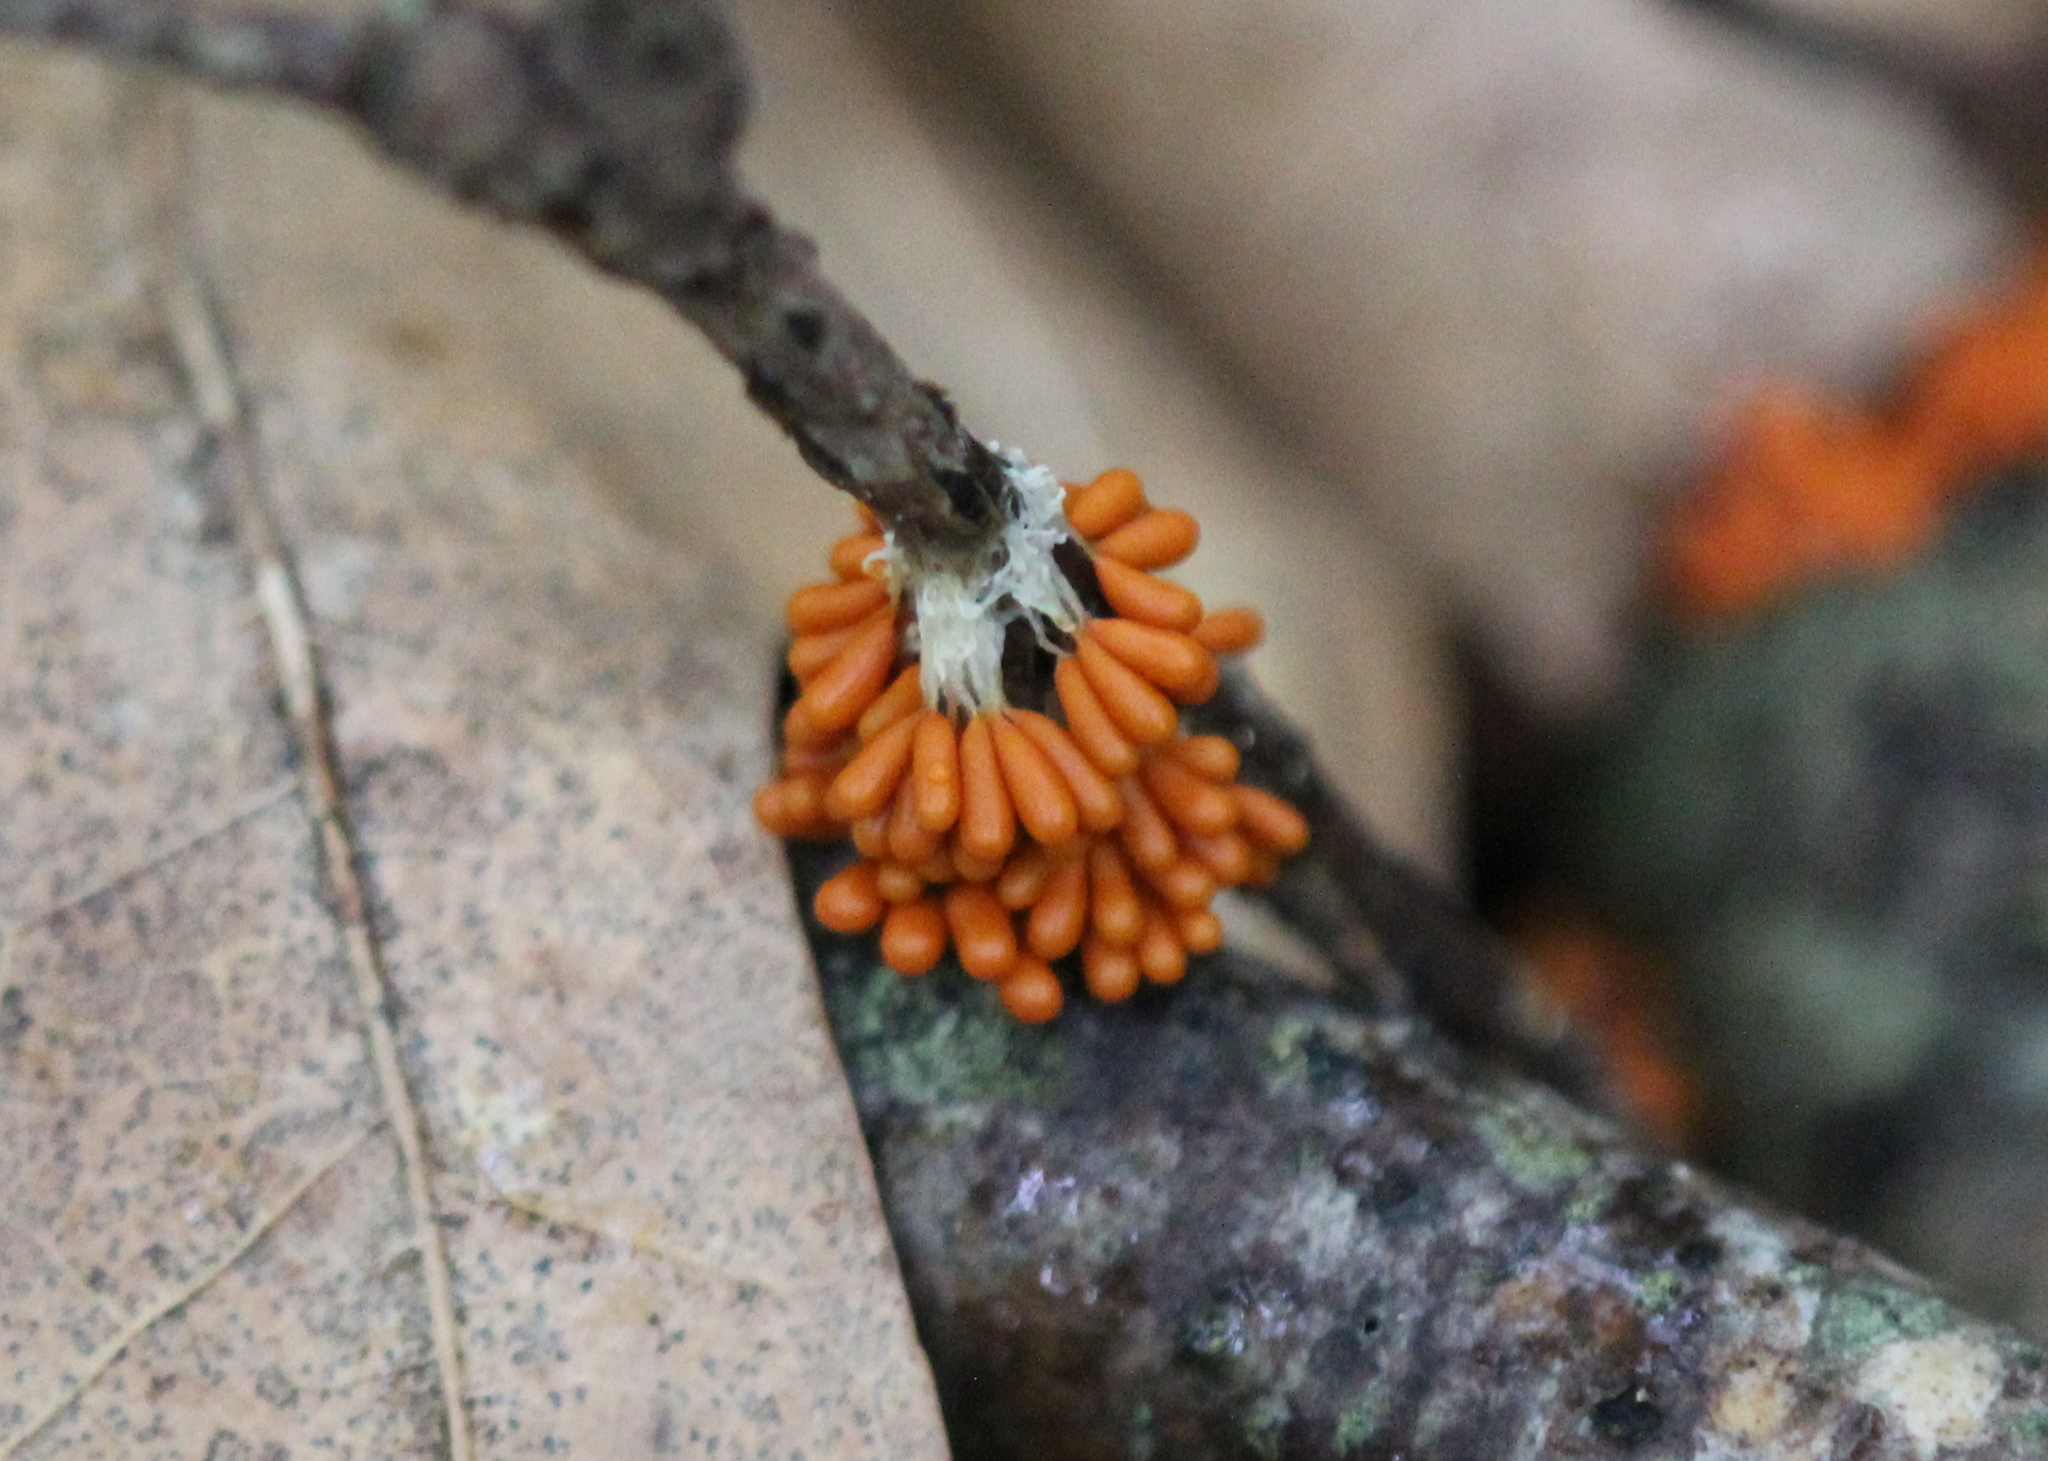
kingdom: Protozoa
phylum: Mycetozoa
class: Myxomycetes
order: Physarales
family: Physaraceae
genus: Leocarpus
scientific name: Leocarpus fragilis
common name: Insect-egg slime
